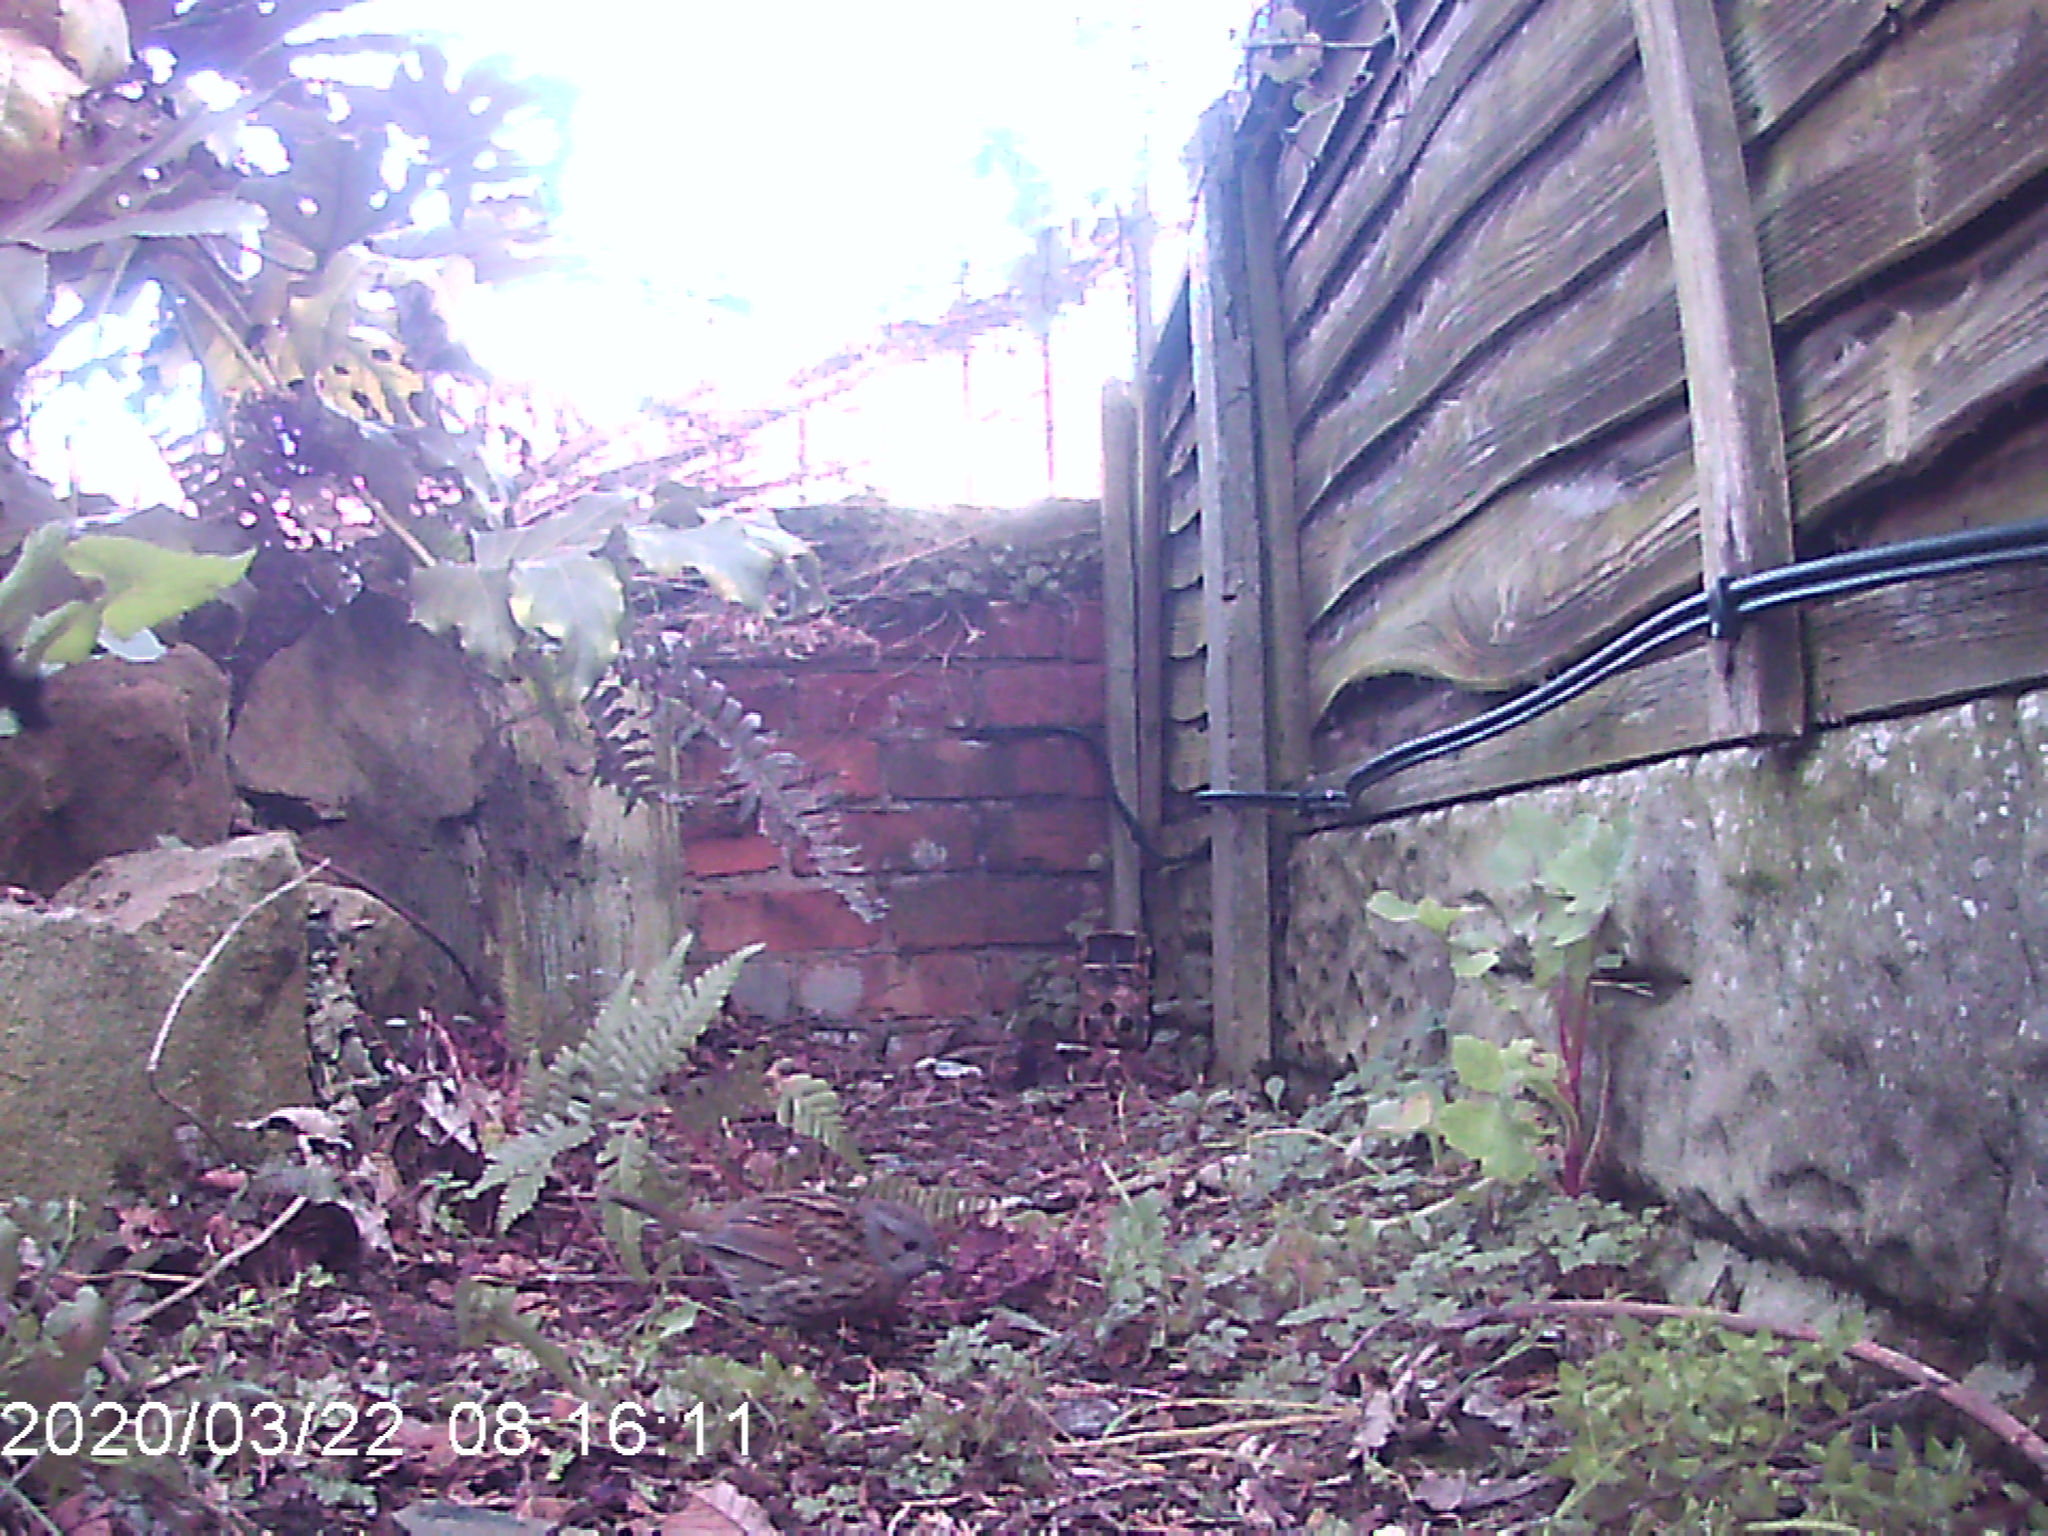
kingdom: Animalia
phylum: Chordata
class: Aves
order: Passeriformes
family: Prunellidae
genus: Prunella
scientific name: Prunella modularis
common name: Dunnock
